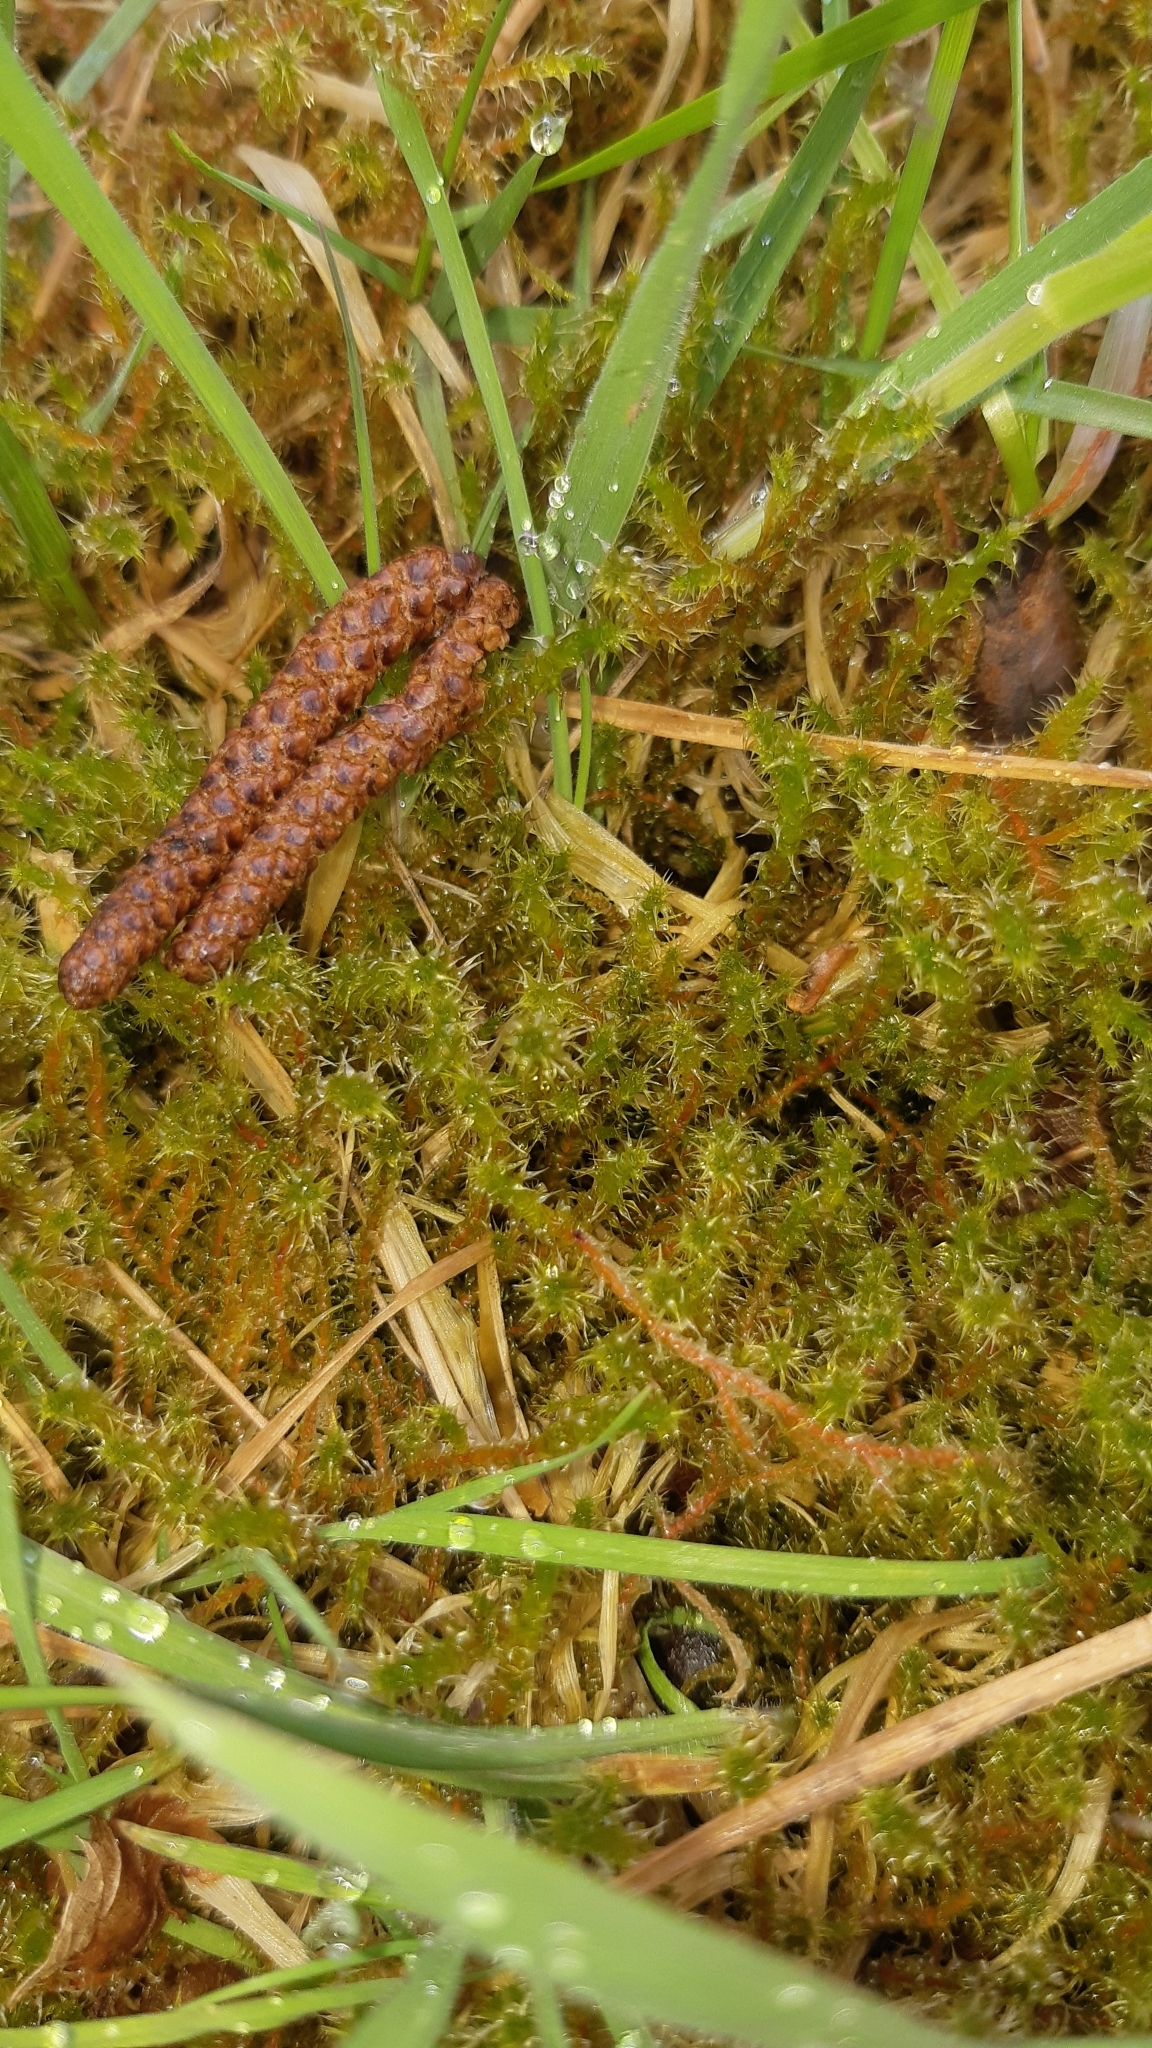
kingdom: Plantae
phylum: Bryophyta
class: Bryopsida
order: Hypnales
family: Hylocomiaceae
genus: Rhytidiadelphus
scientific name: Rhytidiadelphus squarrosus
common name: Springy turf-moss
